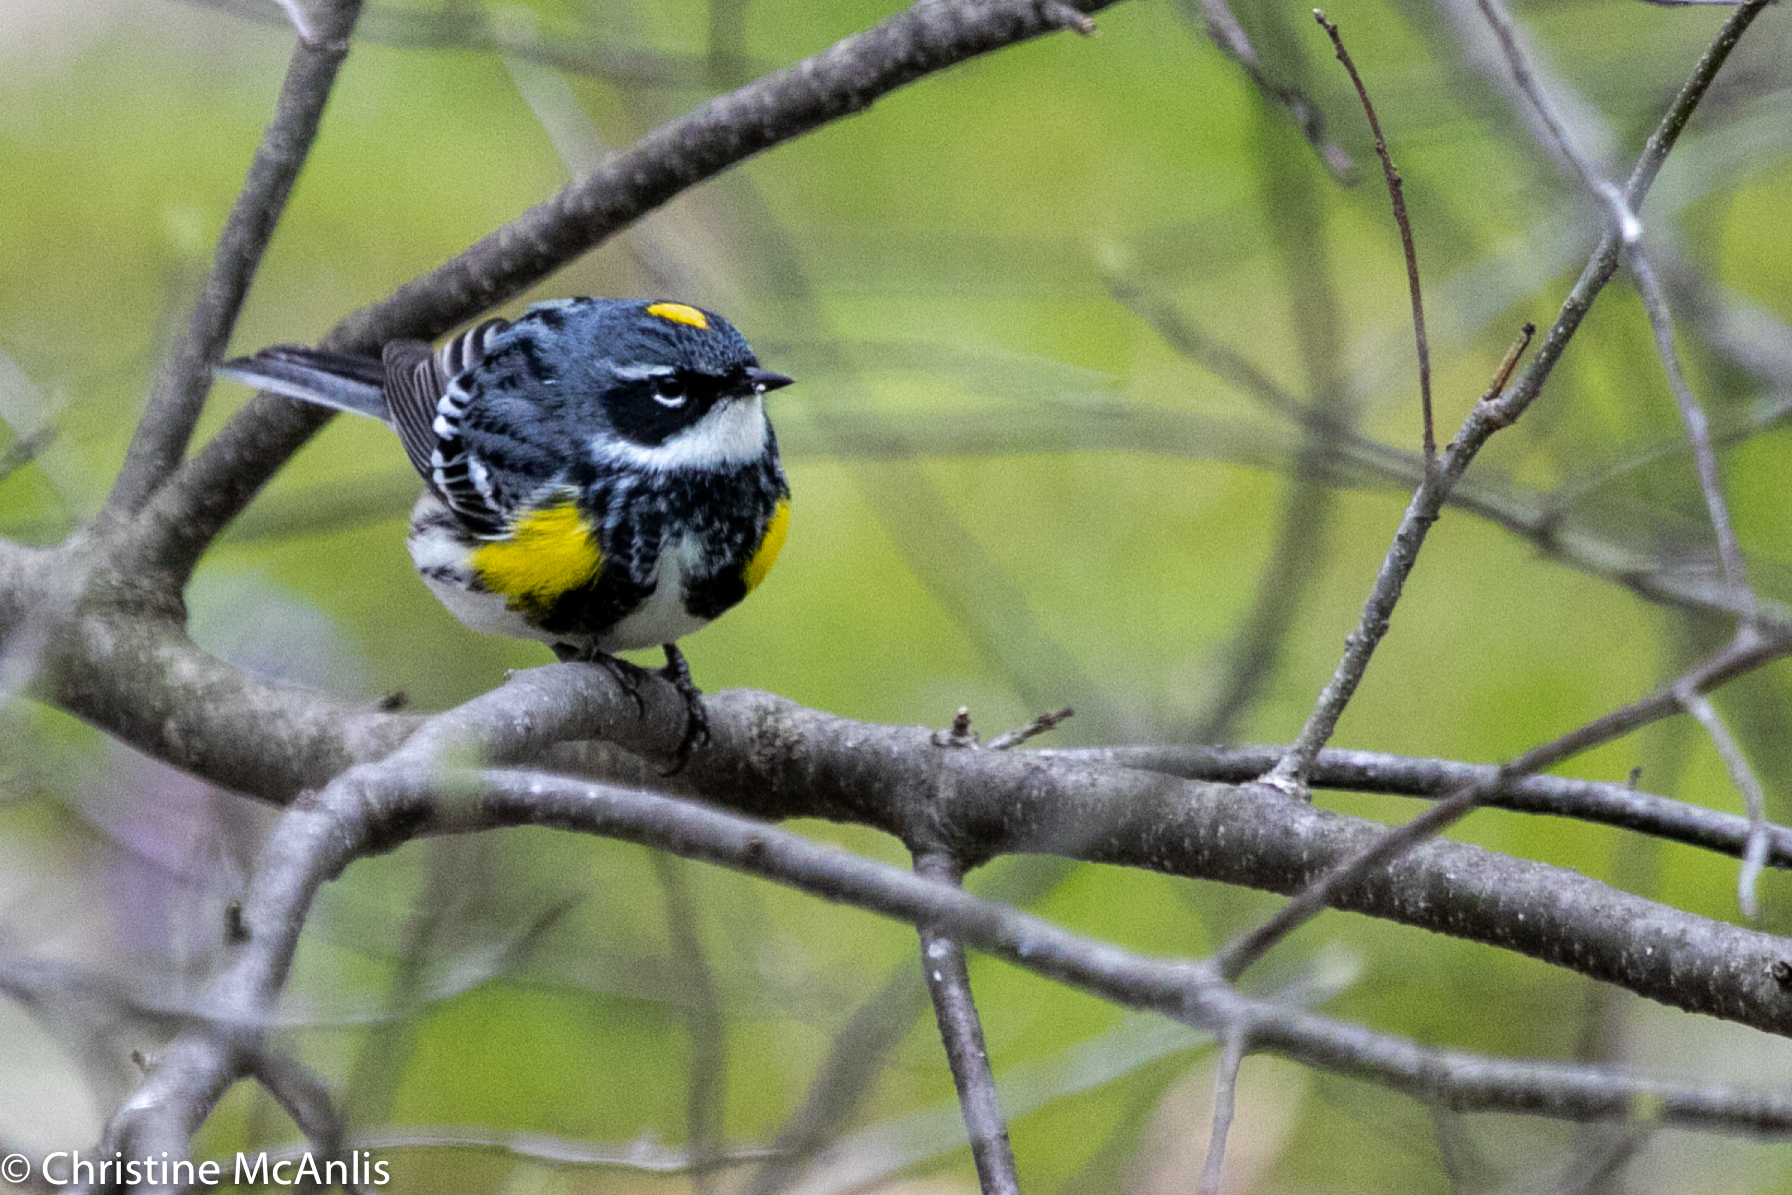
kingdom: Animalia
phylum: Chordata
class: Aves
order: Passeriformes
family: Parulidae
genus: Setophaga
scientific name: Setophaga coronata
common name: Myrtle warbler
